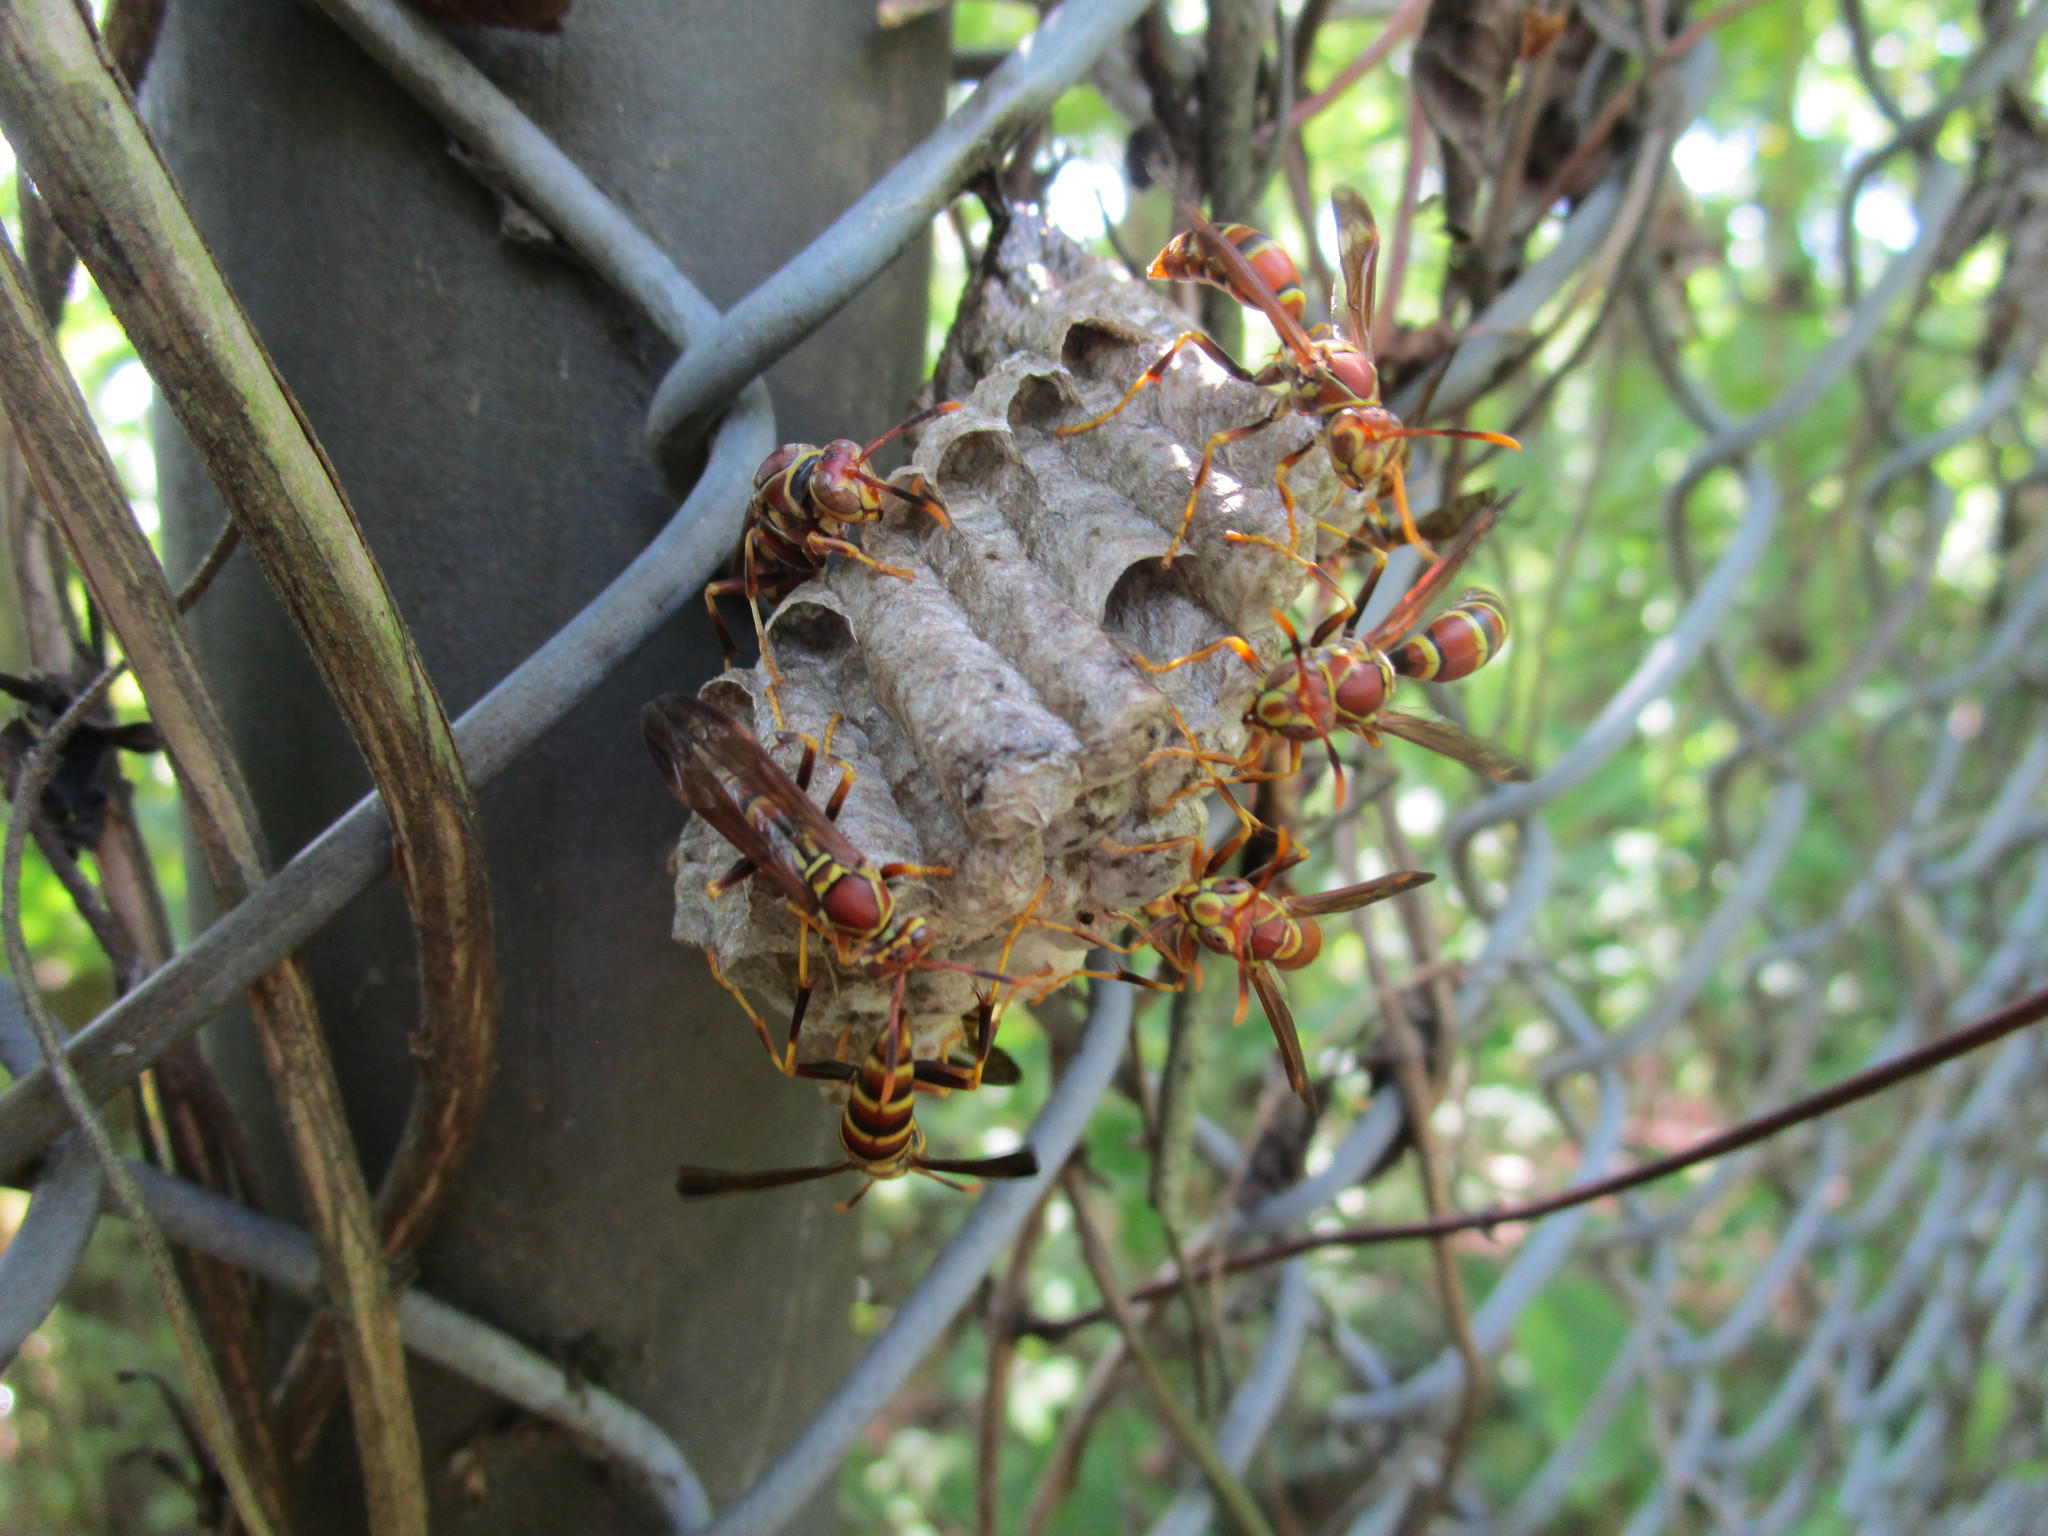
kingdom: Animalia
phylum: Arthropoda
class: Insecta
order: Hymenoptera
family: Eumenidae
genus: Polistes
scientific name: Polistes exclamans
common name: Paper wasp
